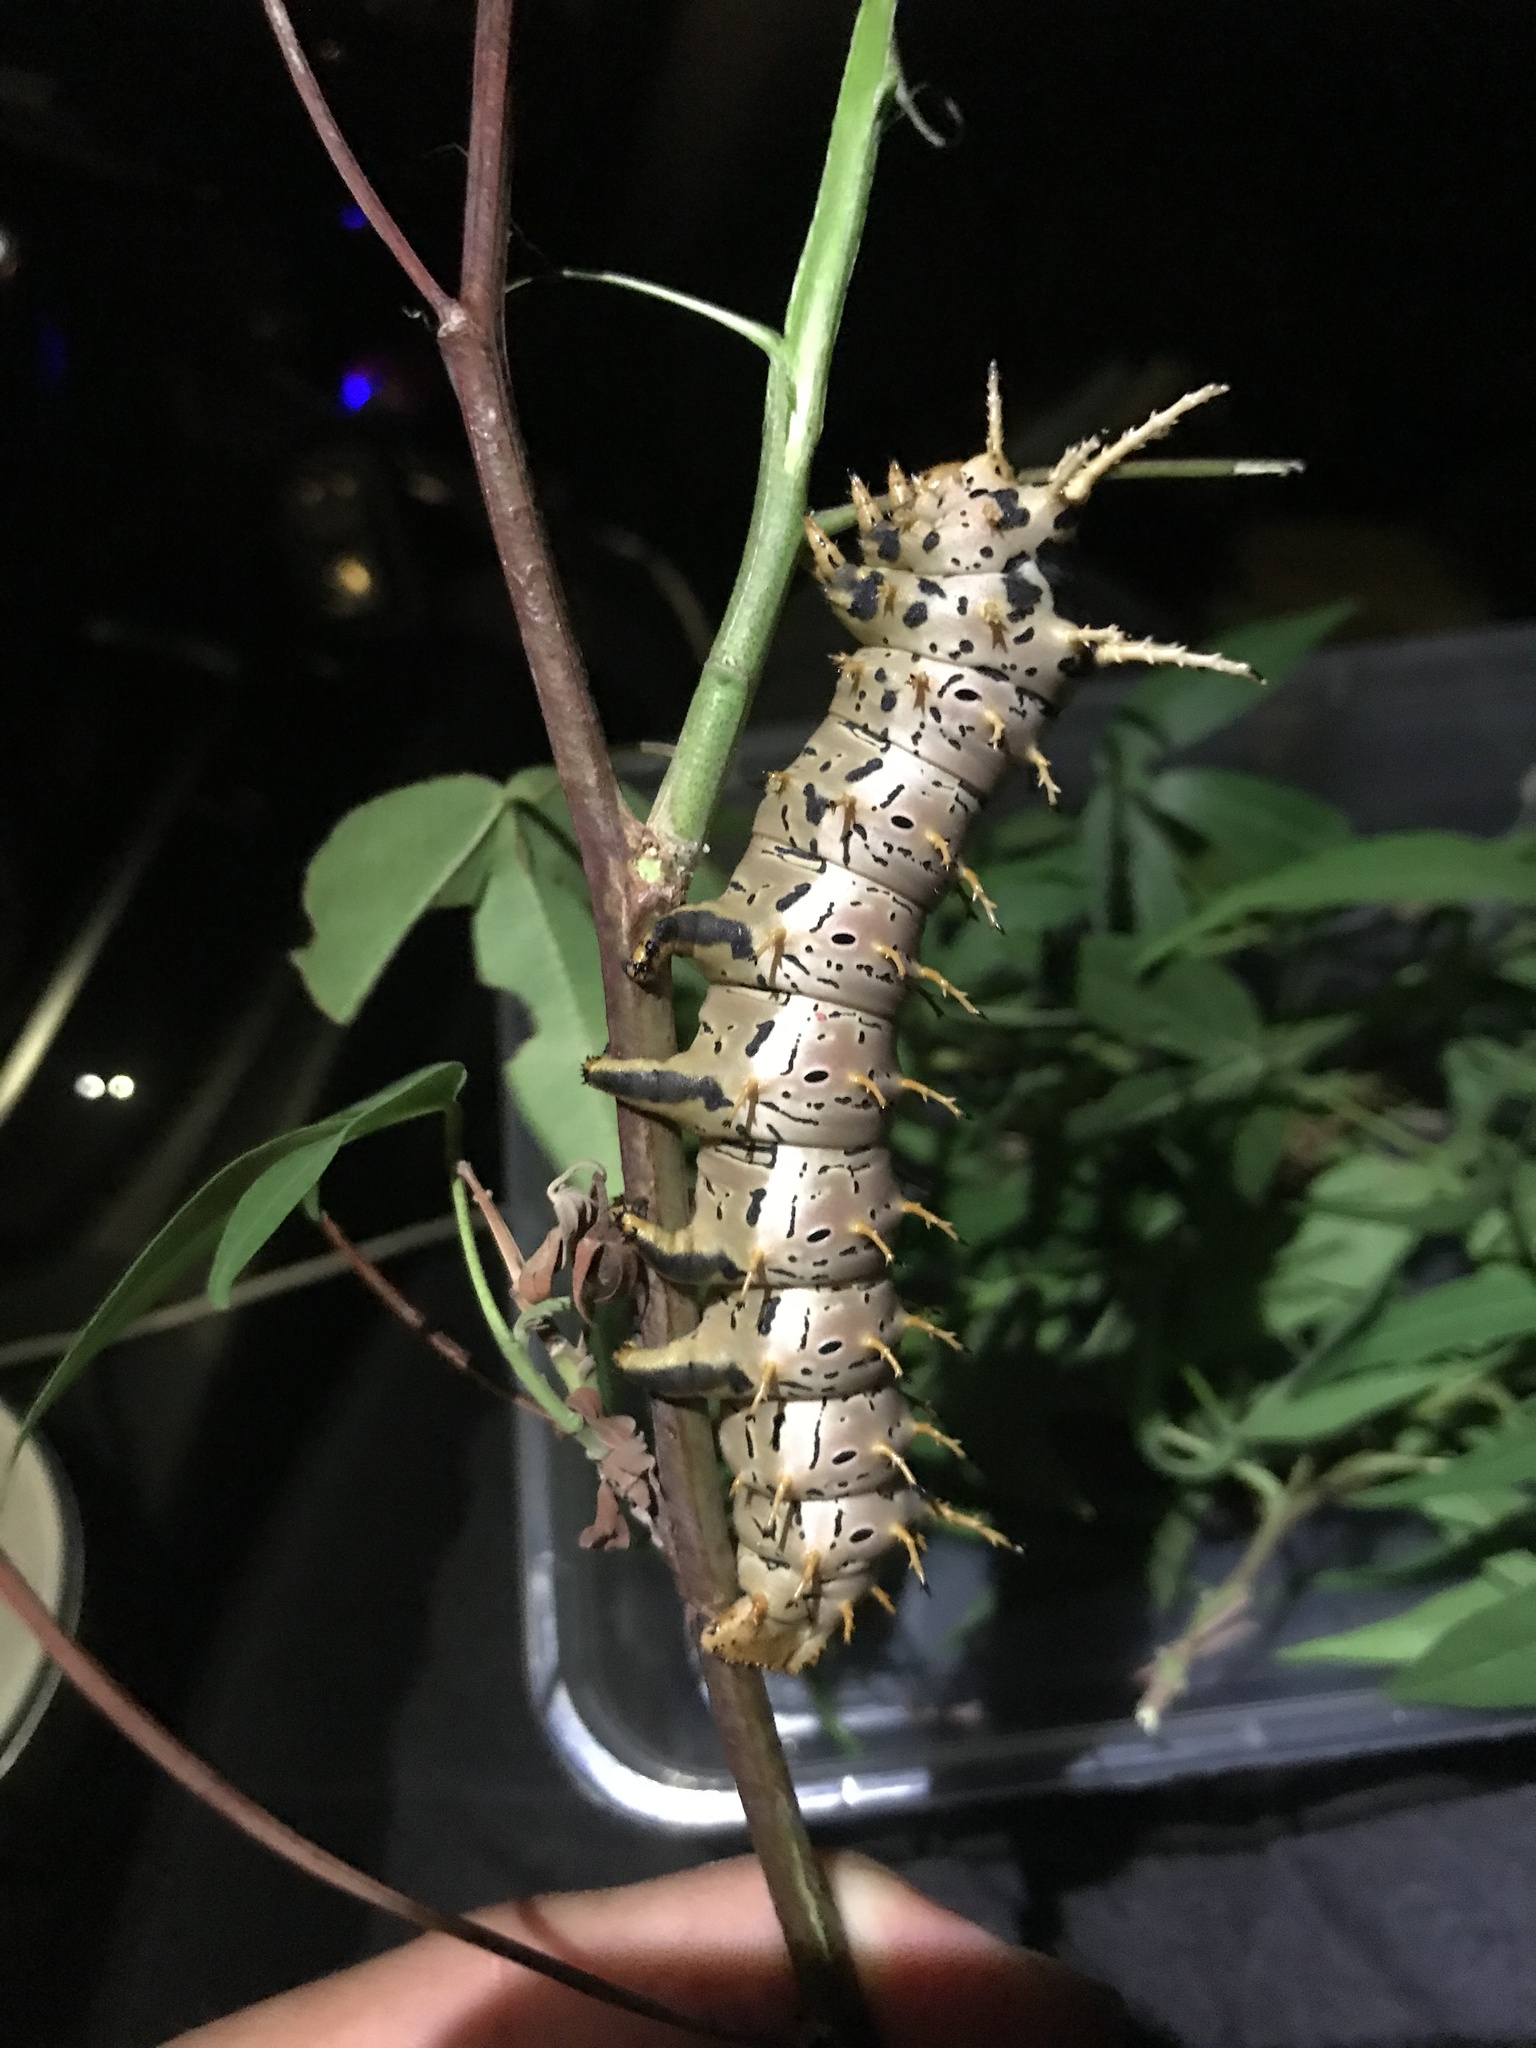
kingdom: Animalia
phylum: Arthropoda
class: Insecta
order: Lepidoptera
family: Saturniidae
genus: Citheronia
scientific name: Citheronia splendens
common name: Splendid royal moth
